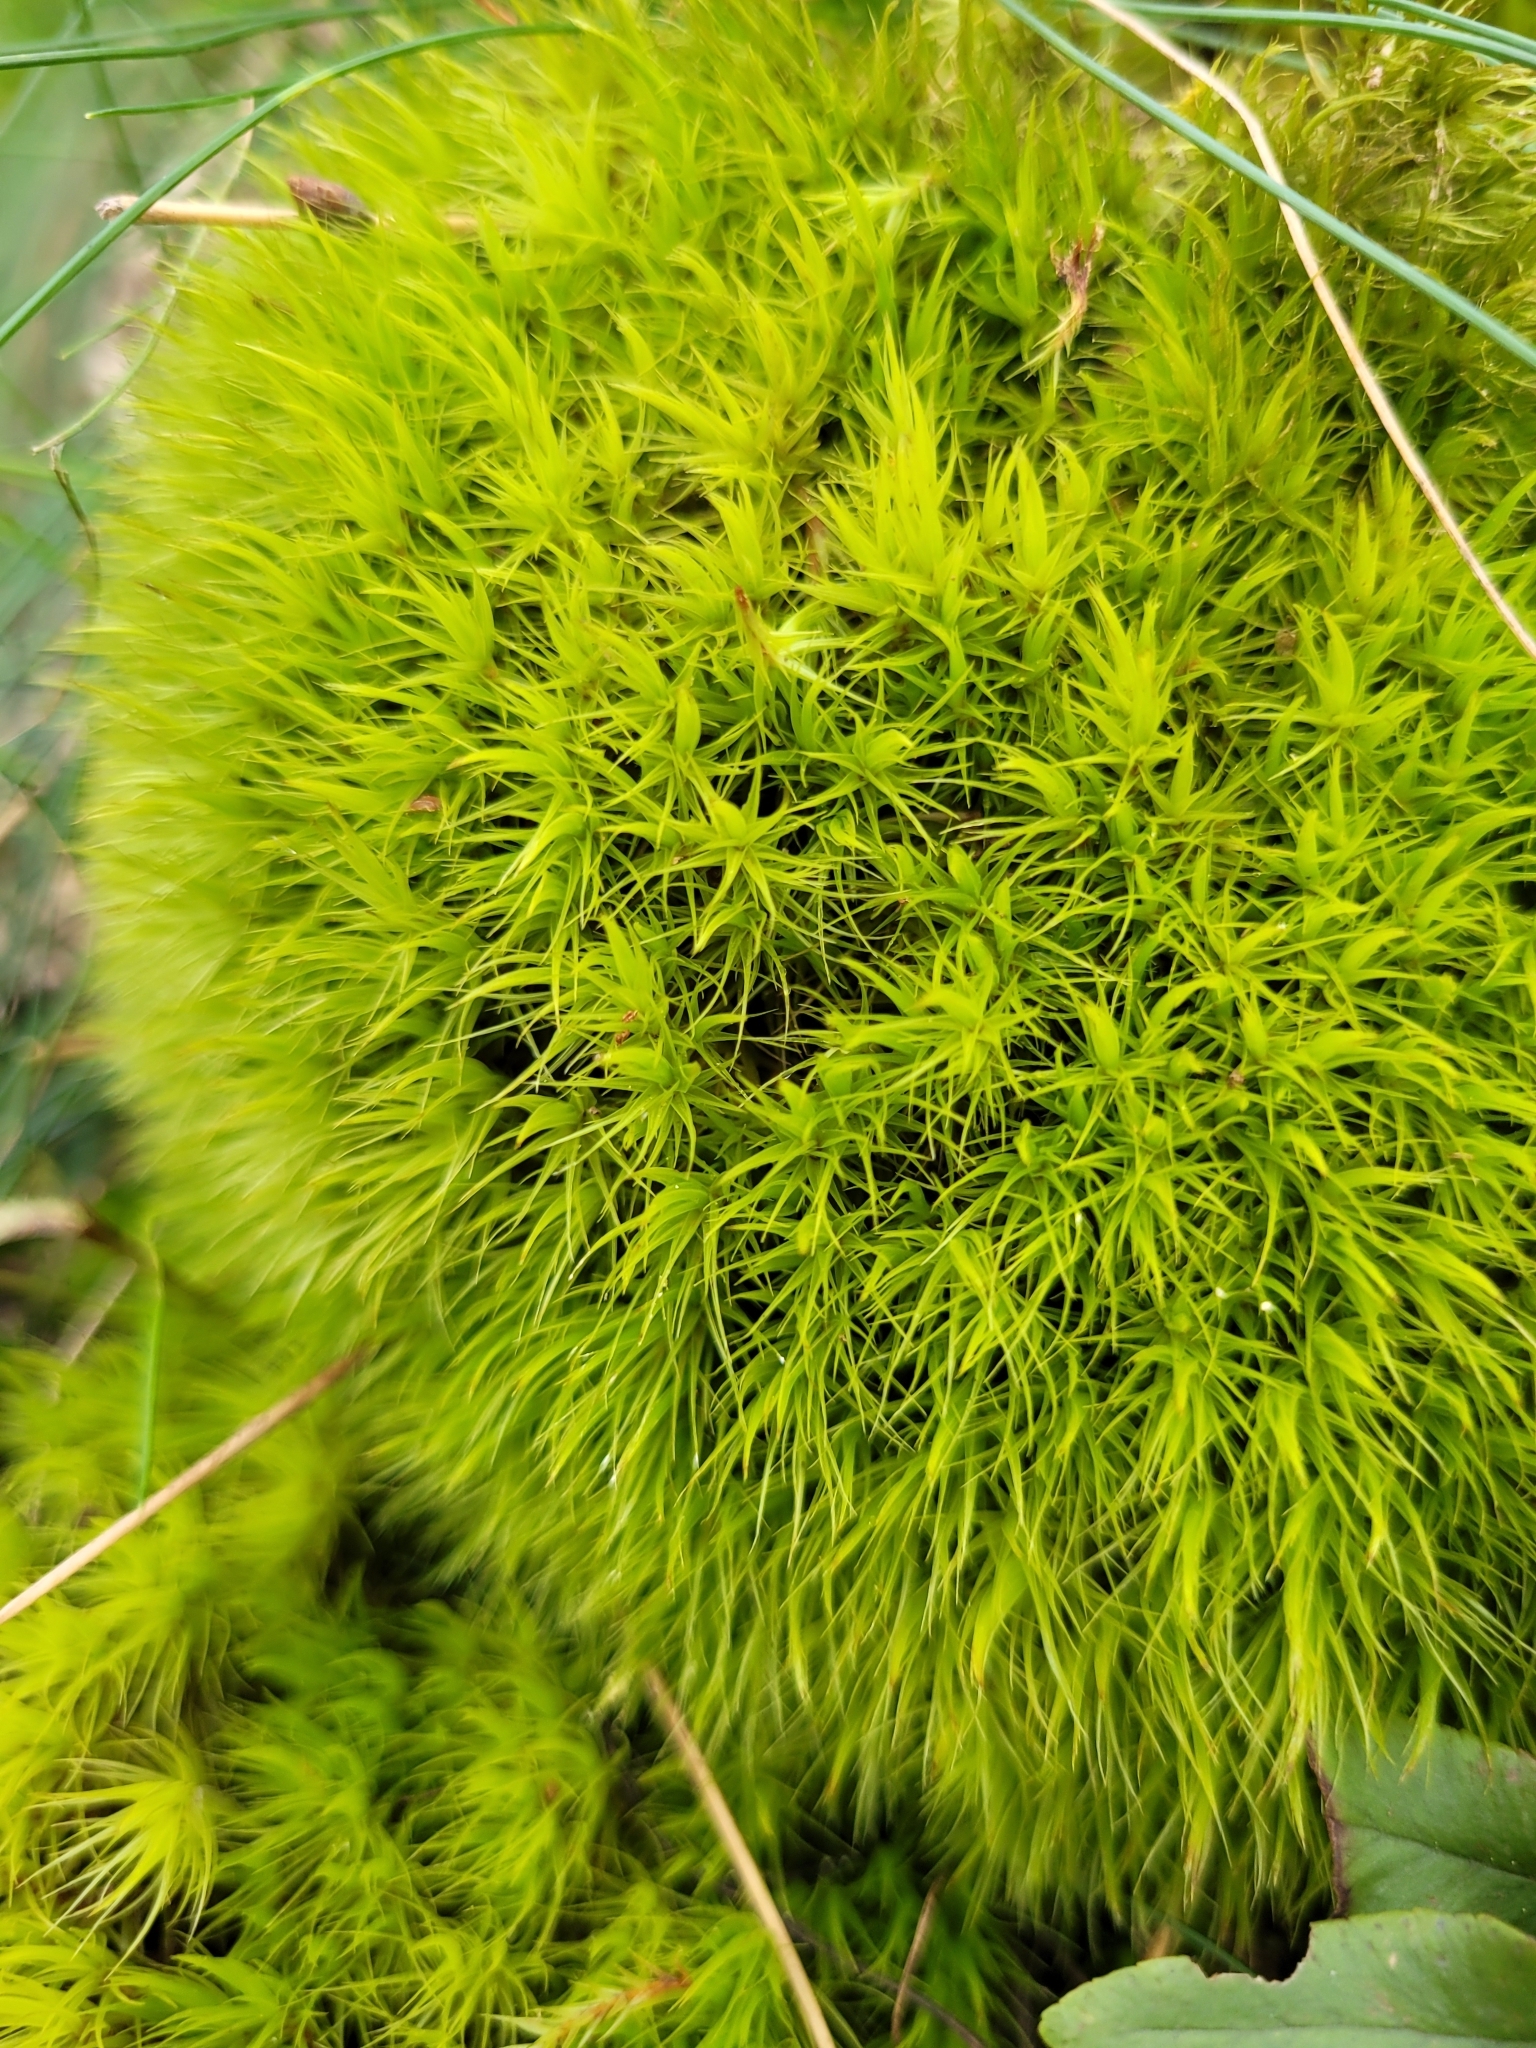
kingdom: Plantae
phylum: Bryophyta
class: Bryopsida
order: Dicranales
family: Dicranaceae
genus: Dicranum
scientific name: Dicranum scoparium
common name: Broom fork-moss
